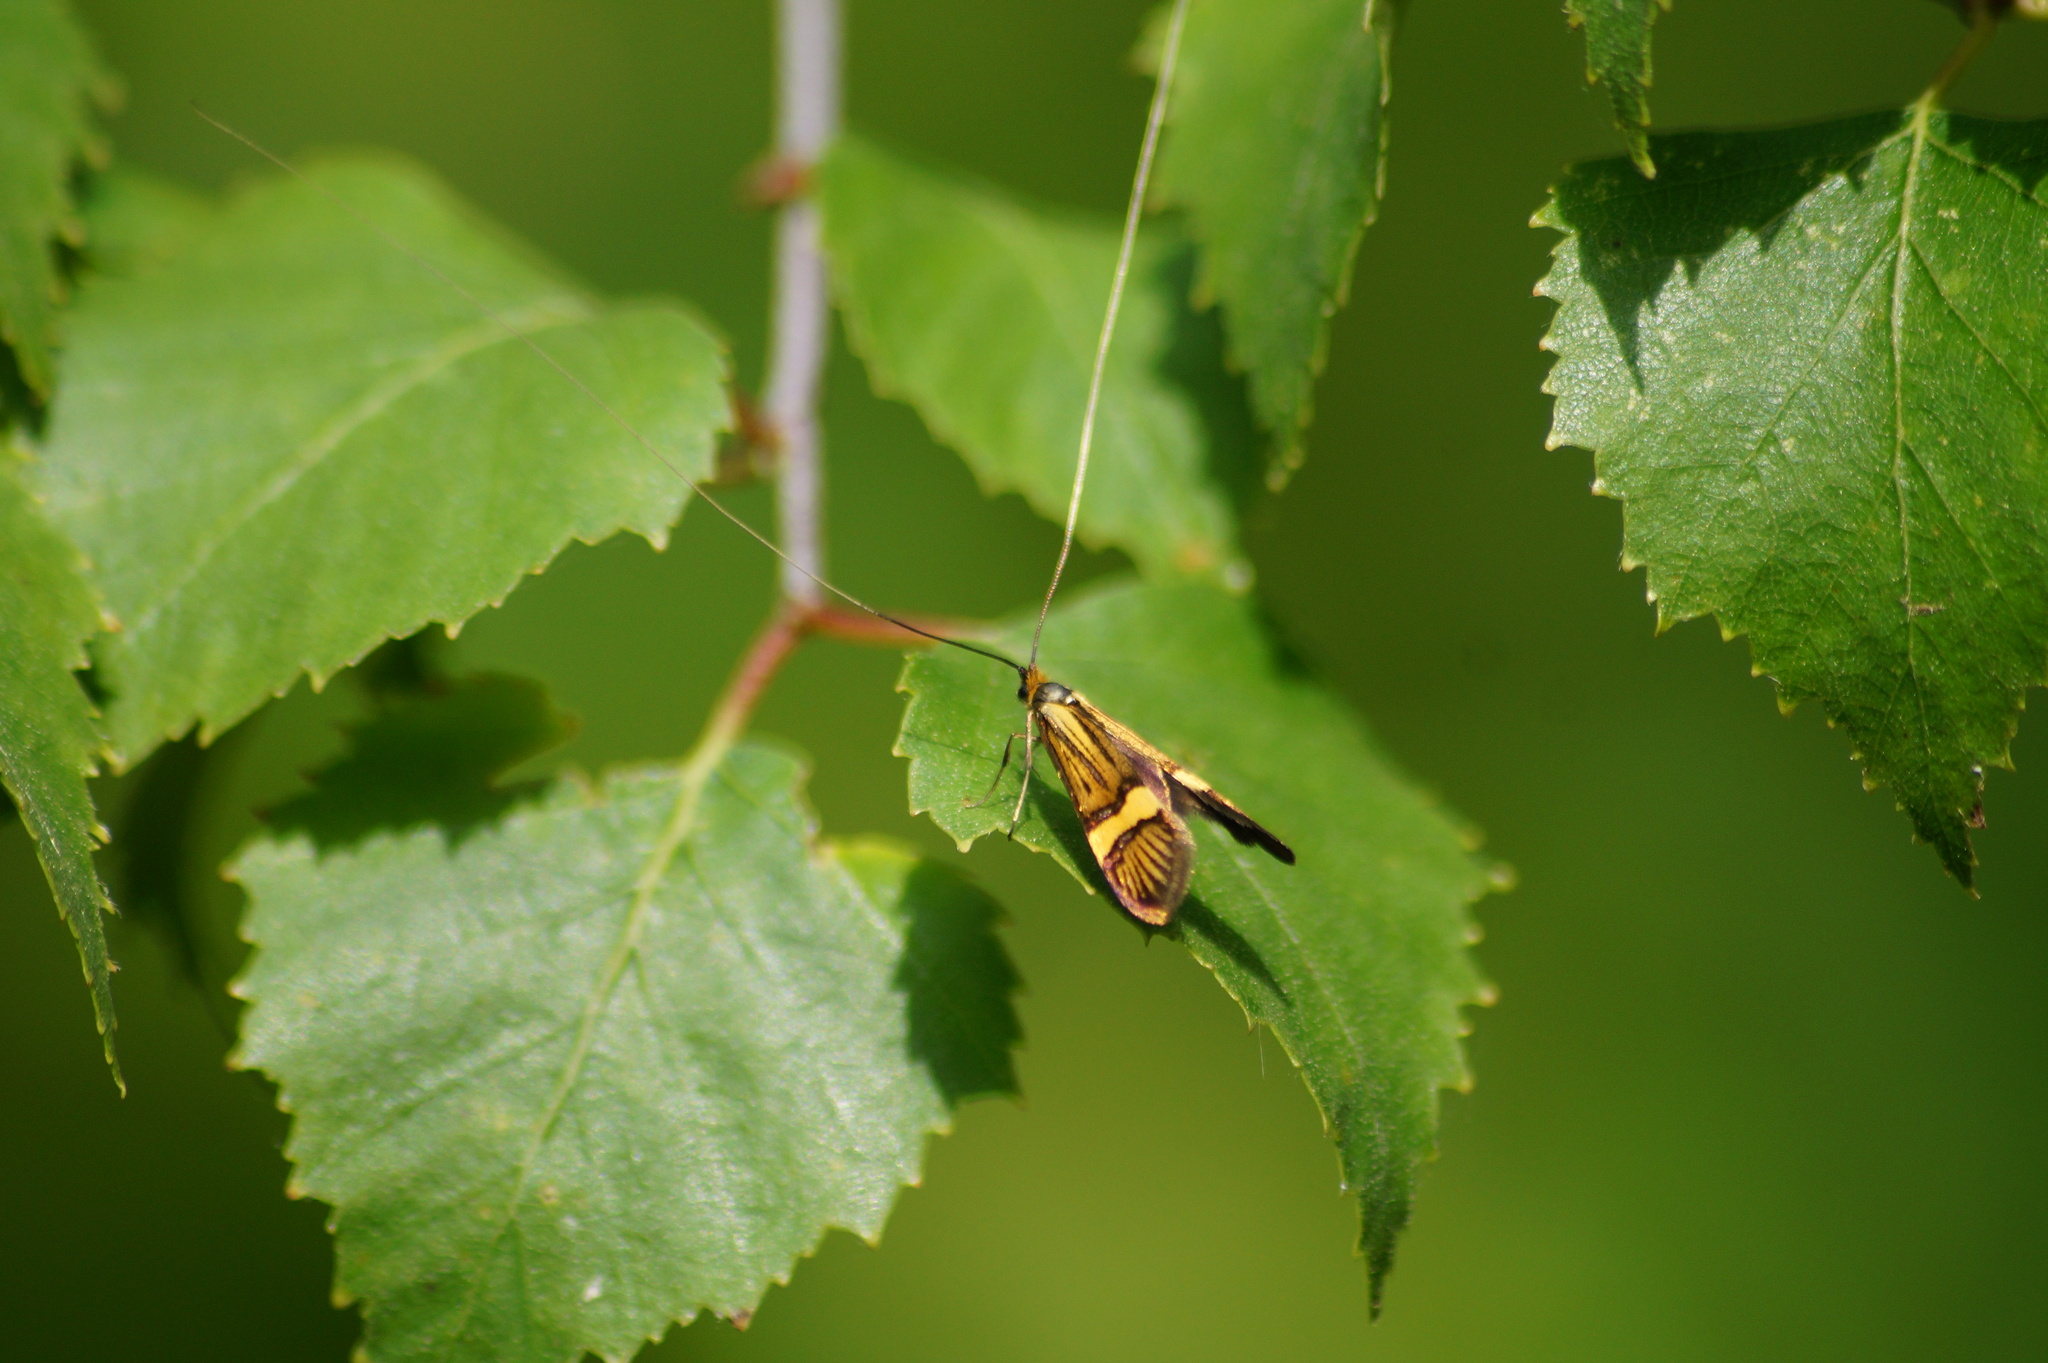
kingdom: Animalia
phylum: Arthropoda
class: Insecta
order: Lepidoptera
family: Adelidae
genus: Nemophora
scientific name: Nemophora degeerella
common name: Yellow-barred long-horn
